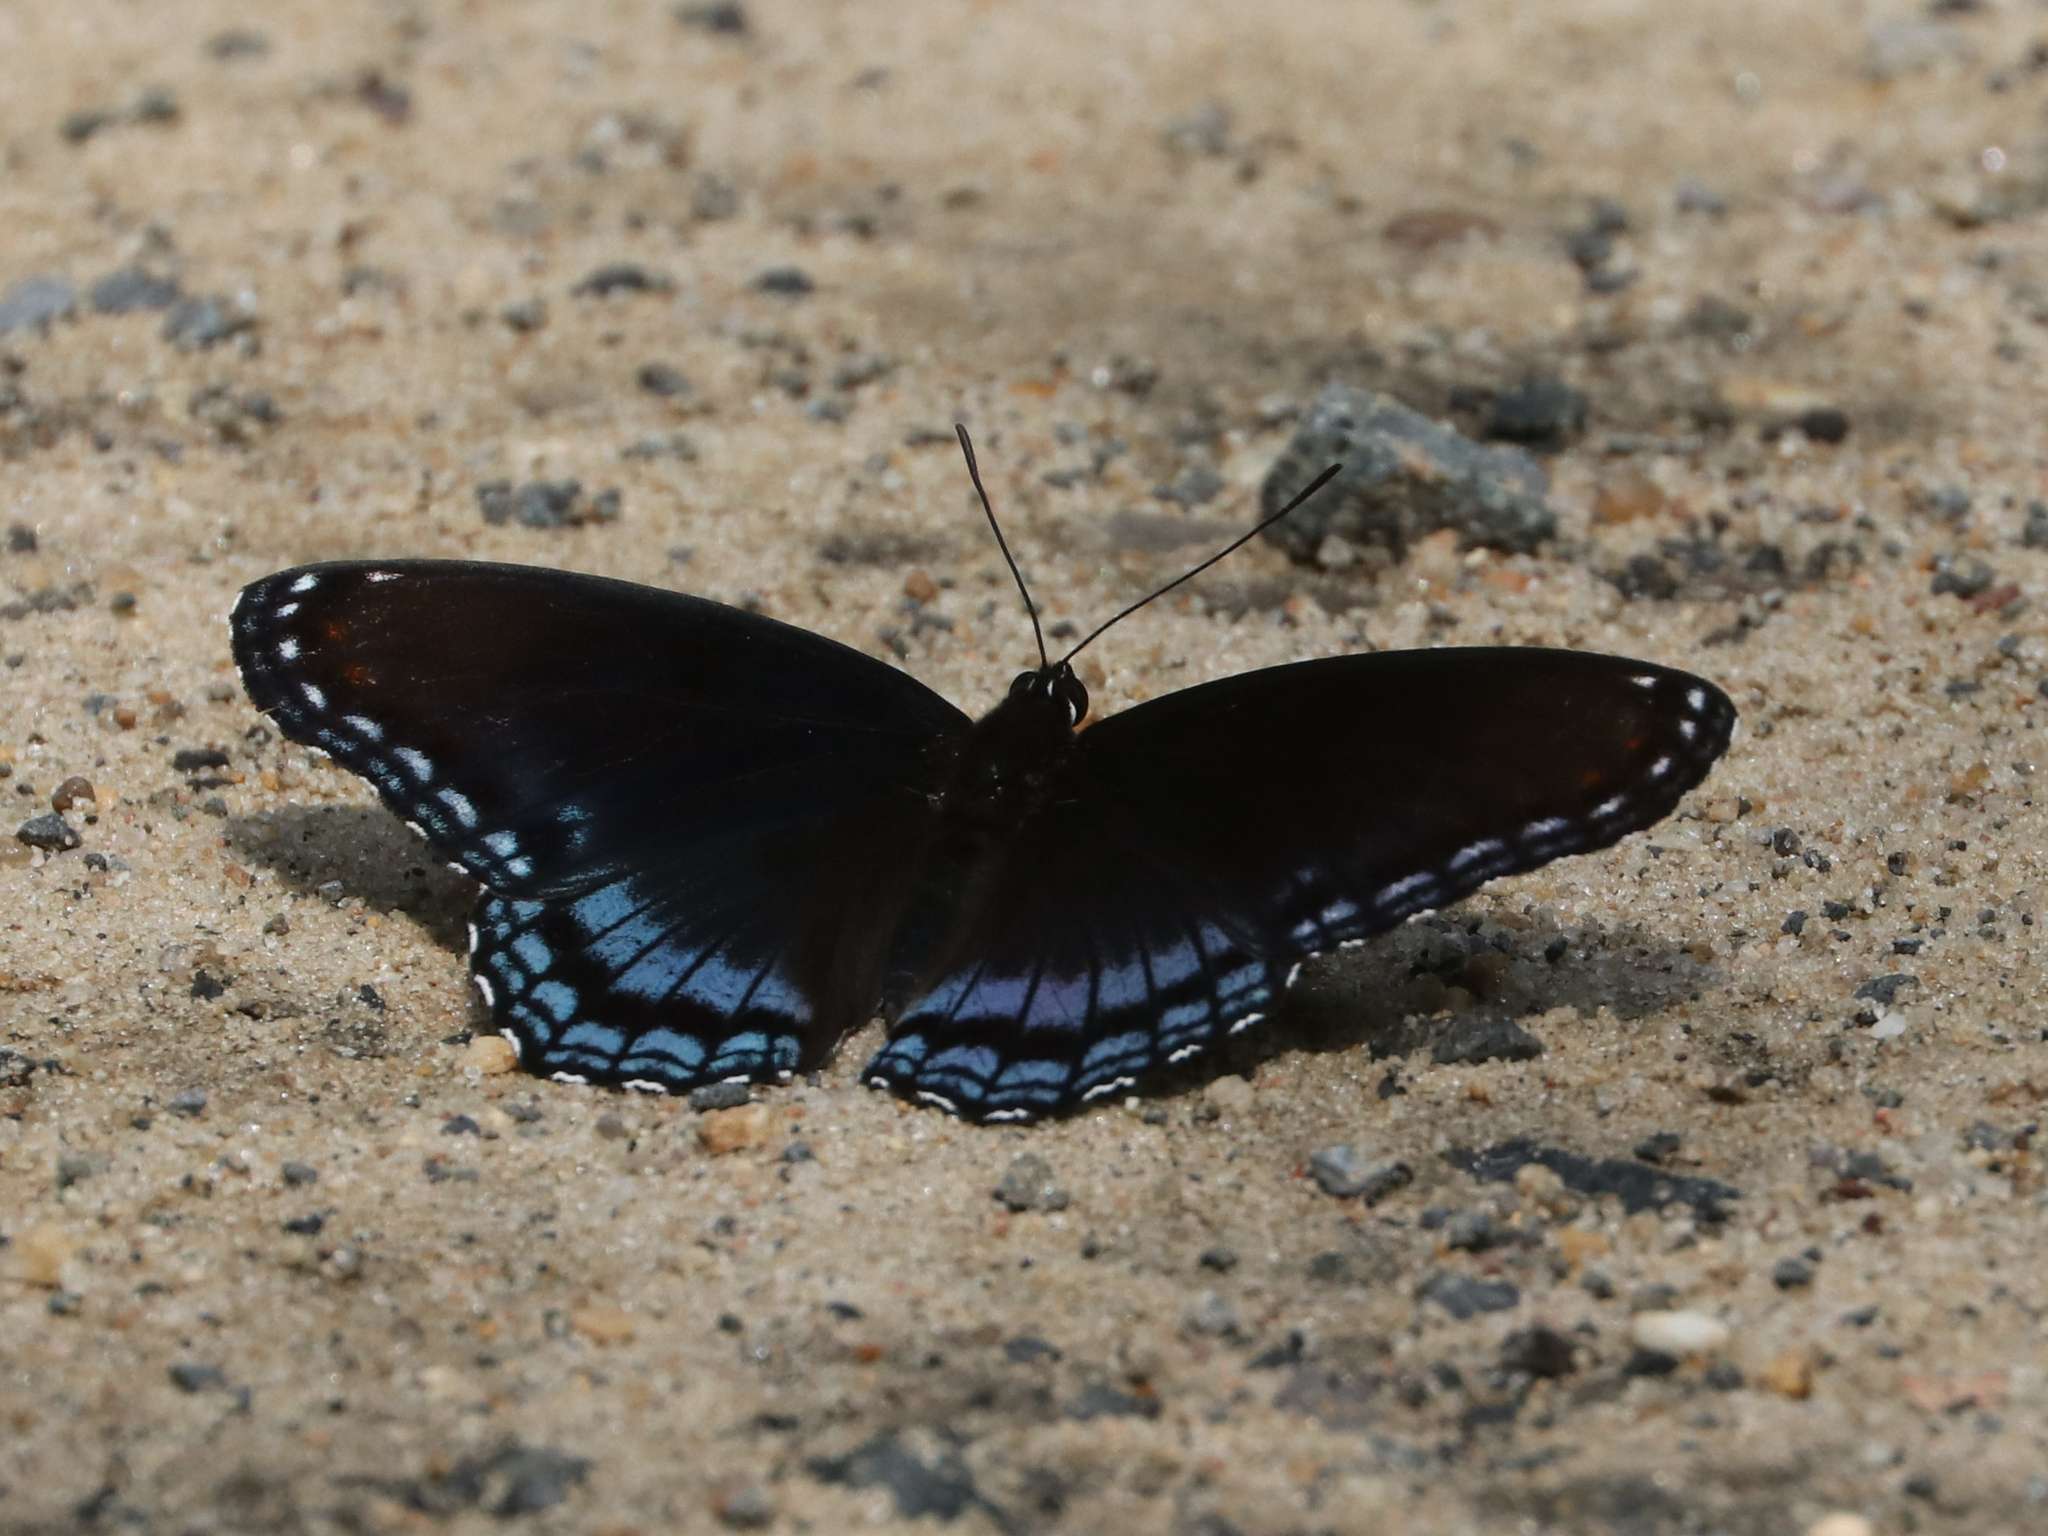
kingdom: Animalia
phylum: Arthropoda
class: Insecta
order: Lepidoptera
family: Nymphalidae
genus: Limenitis
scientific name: Limenitis astyanax
